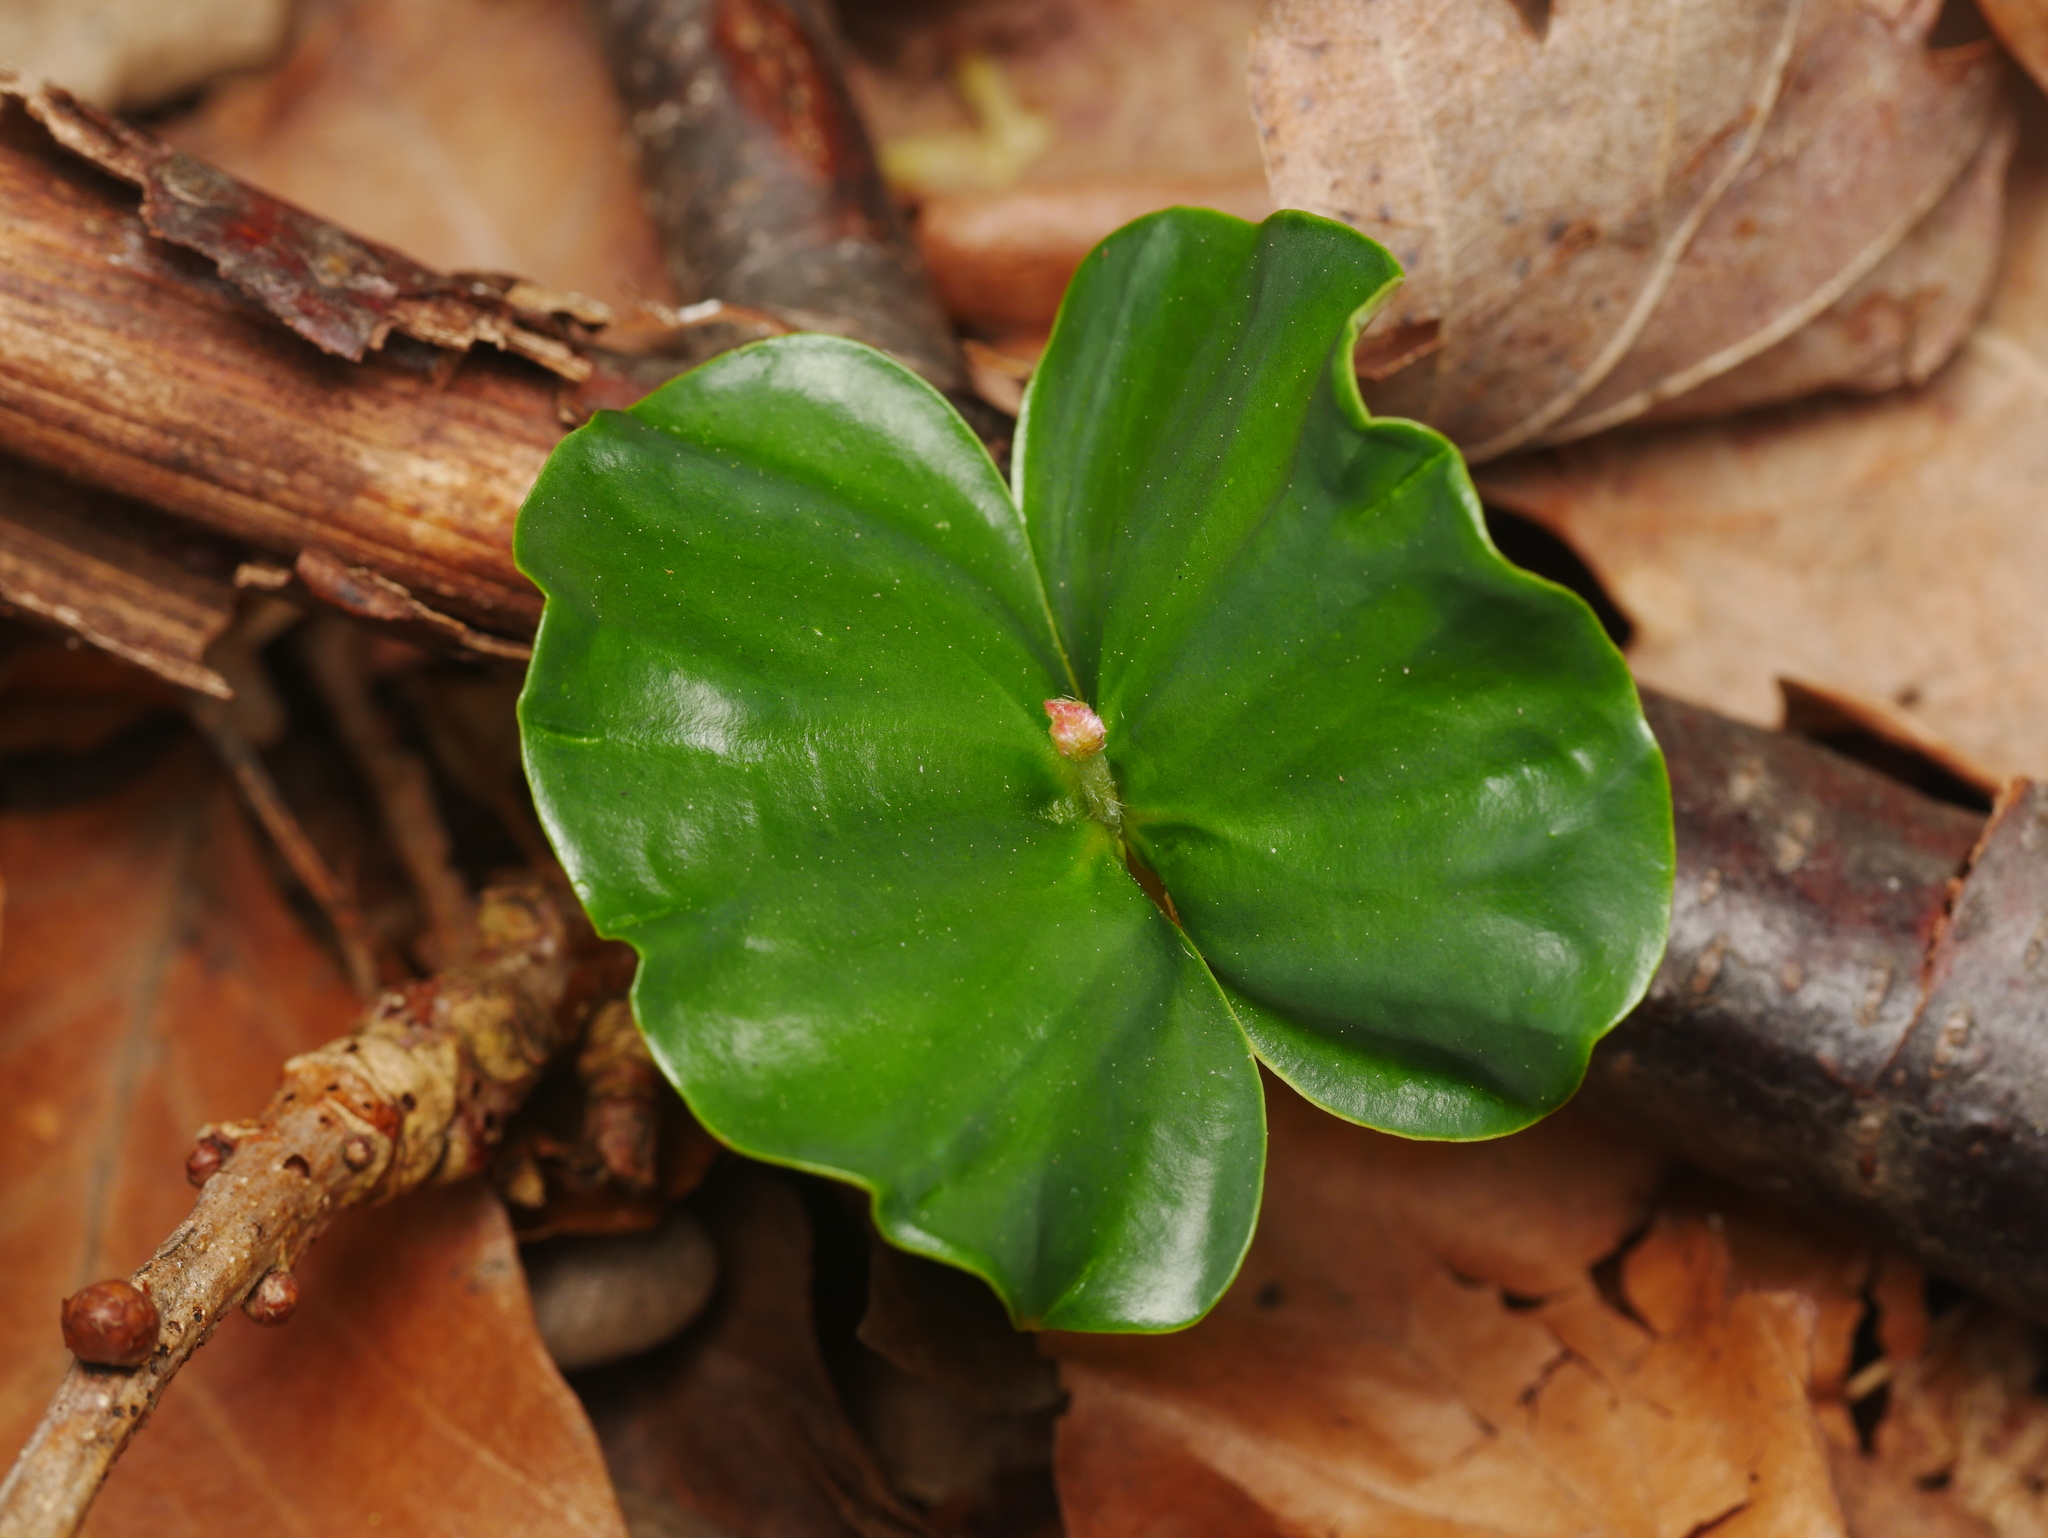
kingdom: Plantae
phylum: Tracheophyta
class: Magnoliopsida
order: Fagales
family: Fagaceae
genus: Fagus
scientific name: Fagus sylvatica
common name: Beech
